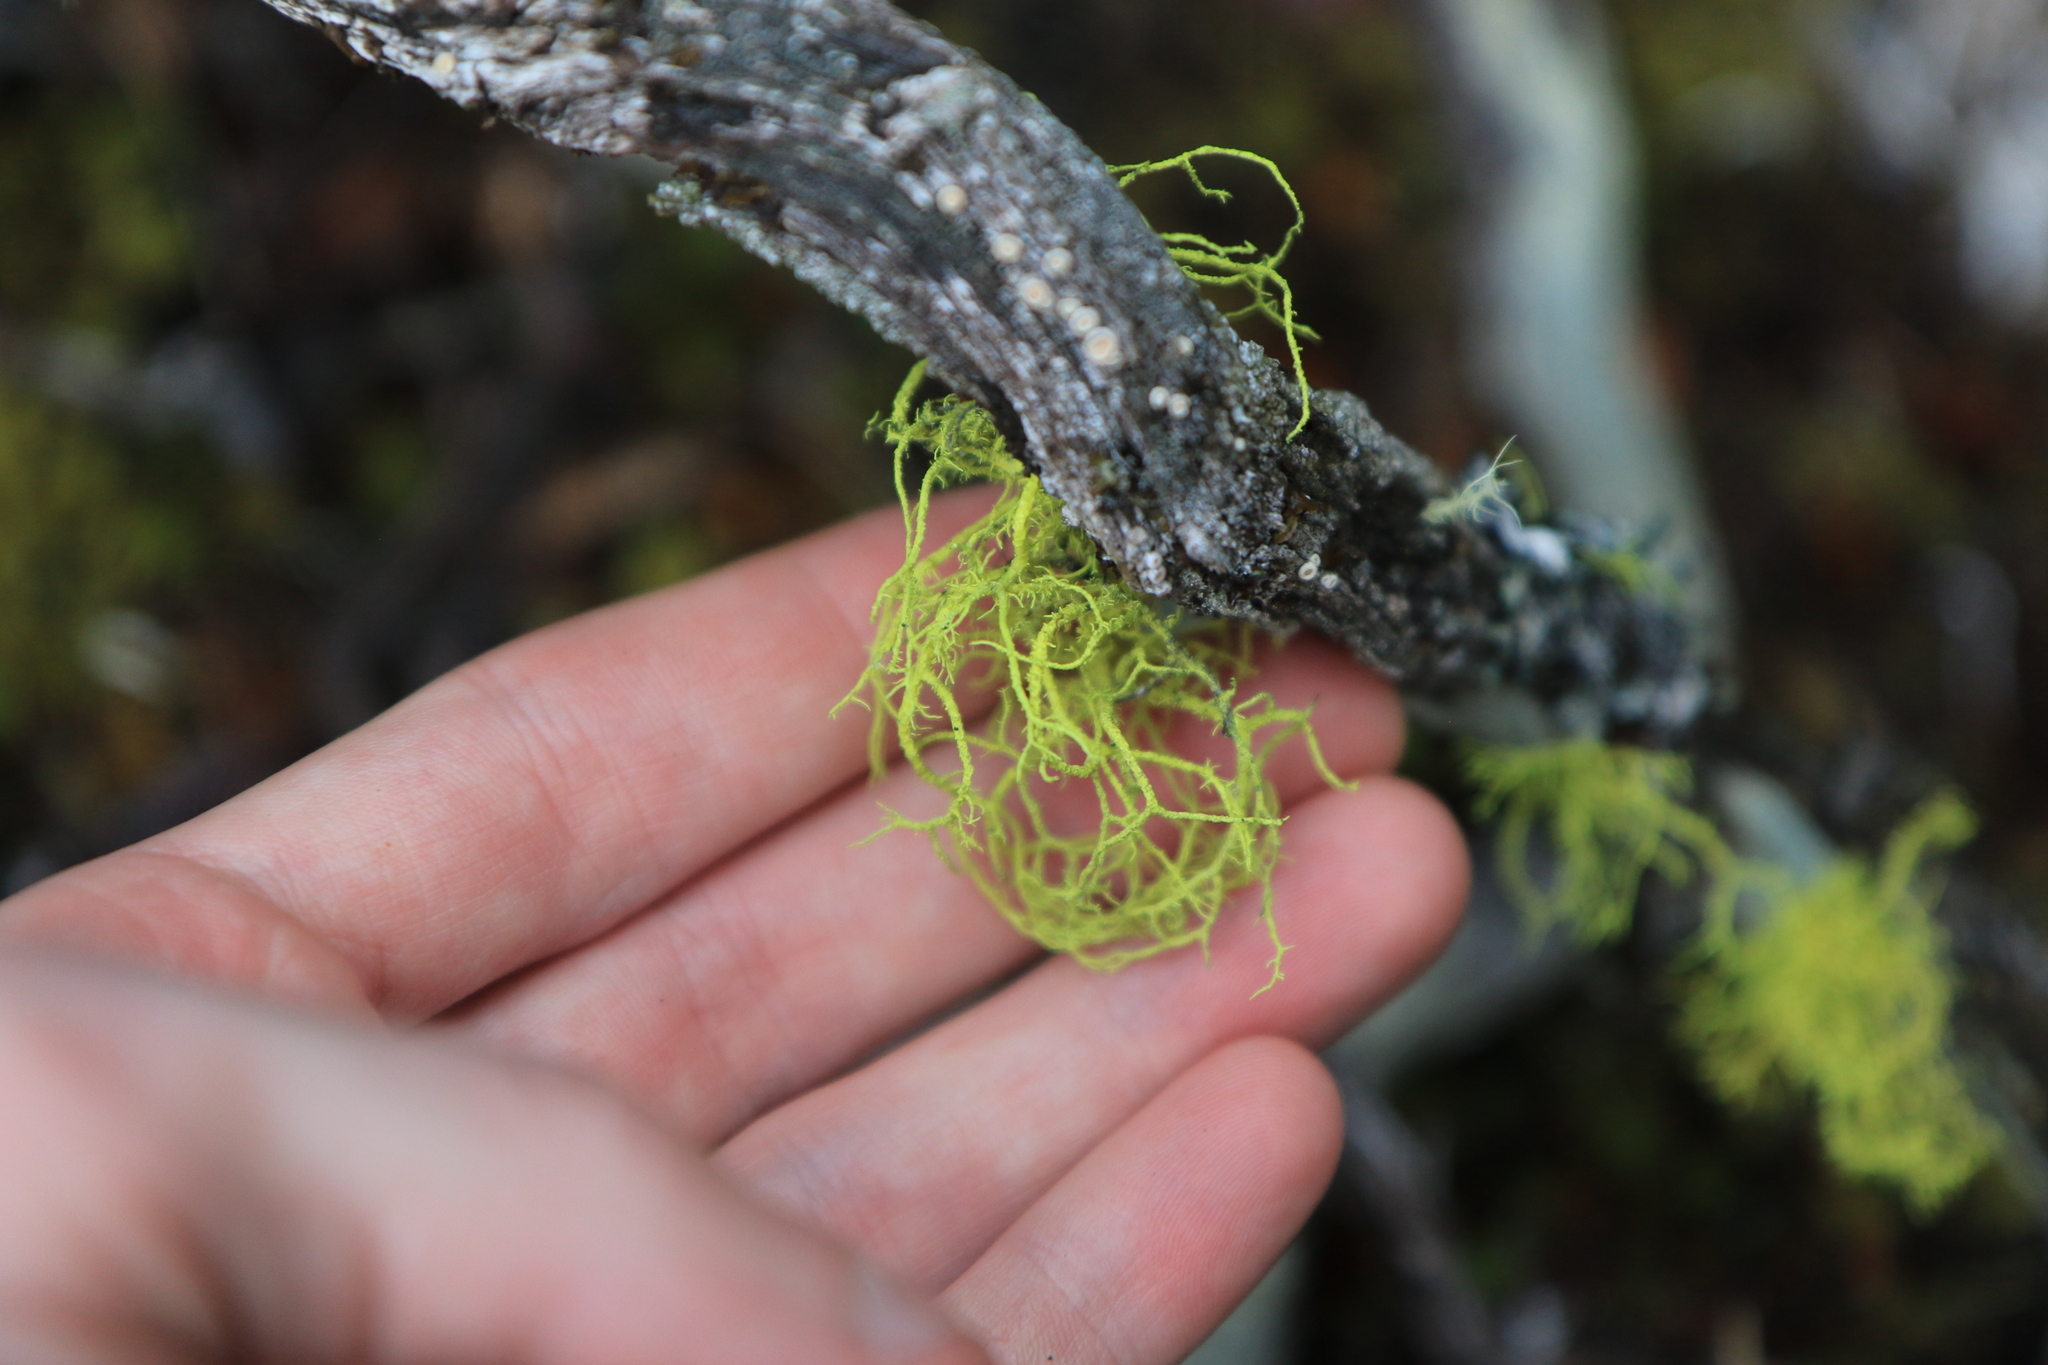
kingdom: Fungi
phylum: Ascomycota
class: Lecanoromycetes
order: Lecanorales
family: Parmeliaceae
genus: Letharia
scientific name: Letharia vulpina
